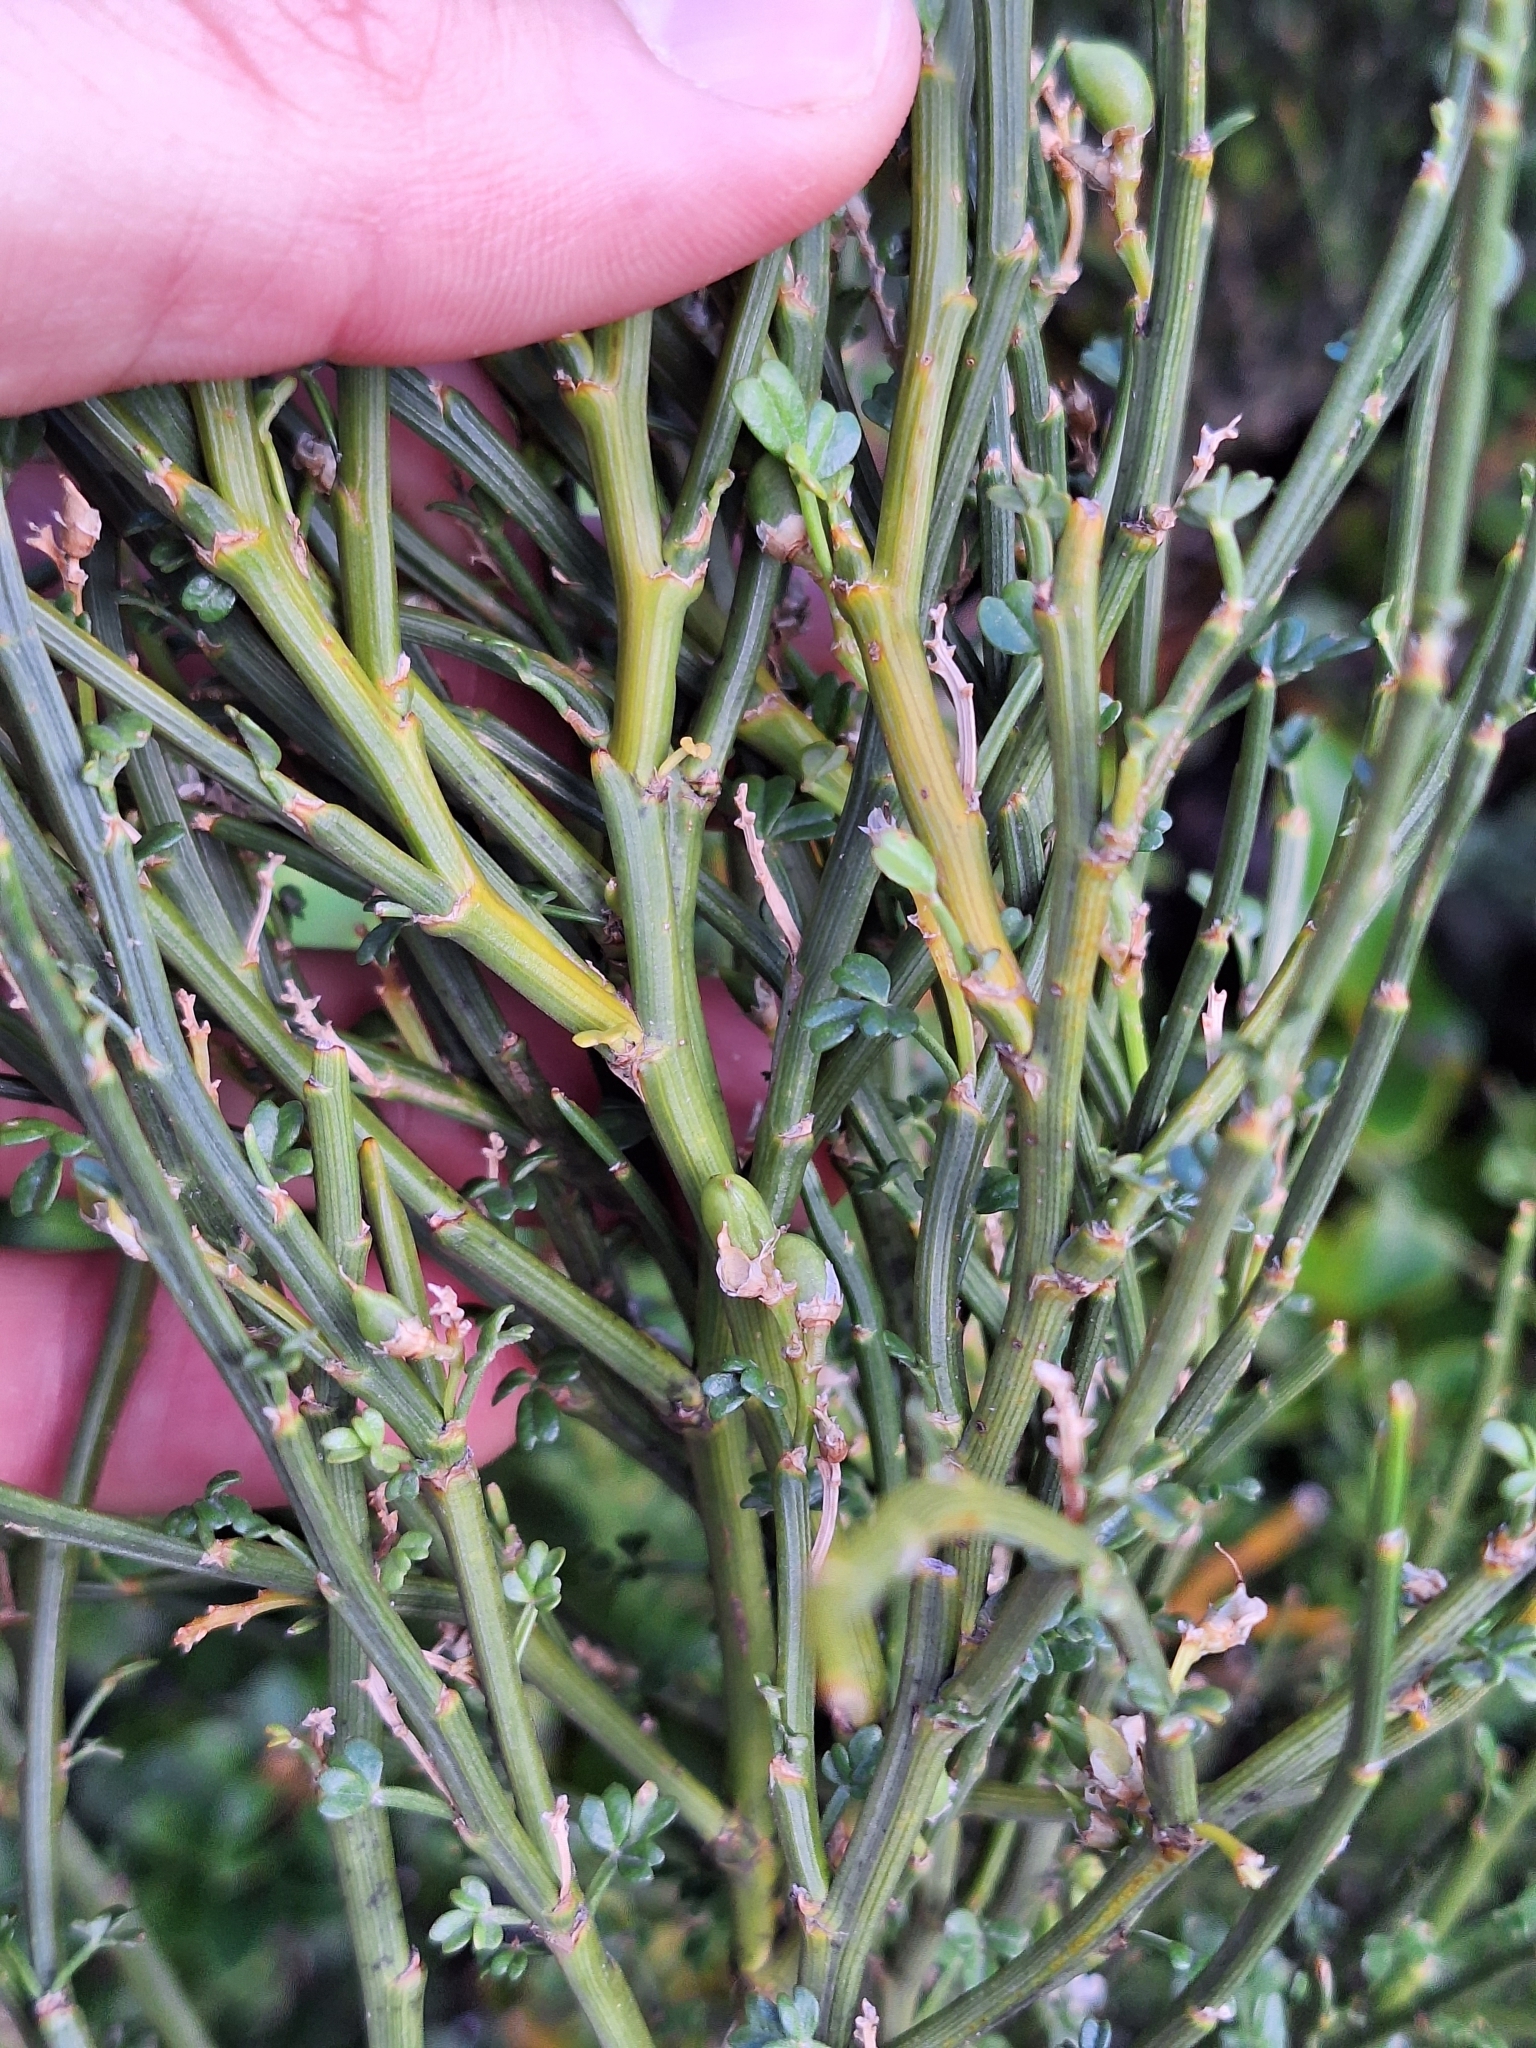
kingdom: Plantae
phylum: Tracheophyta
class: Magnoliopsida
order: Fabales
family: Fabaceae
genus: Carmichaelia
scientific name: Carmichaelia arborea
